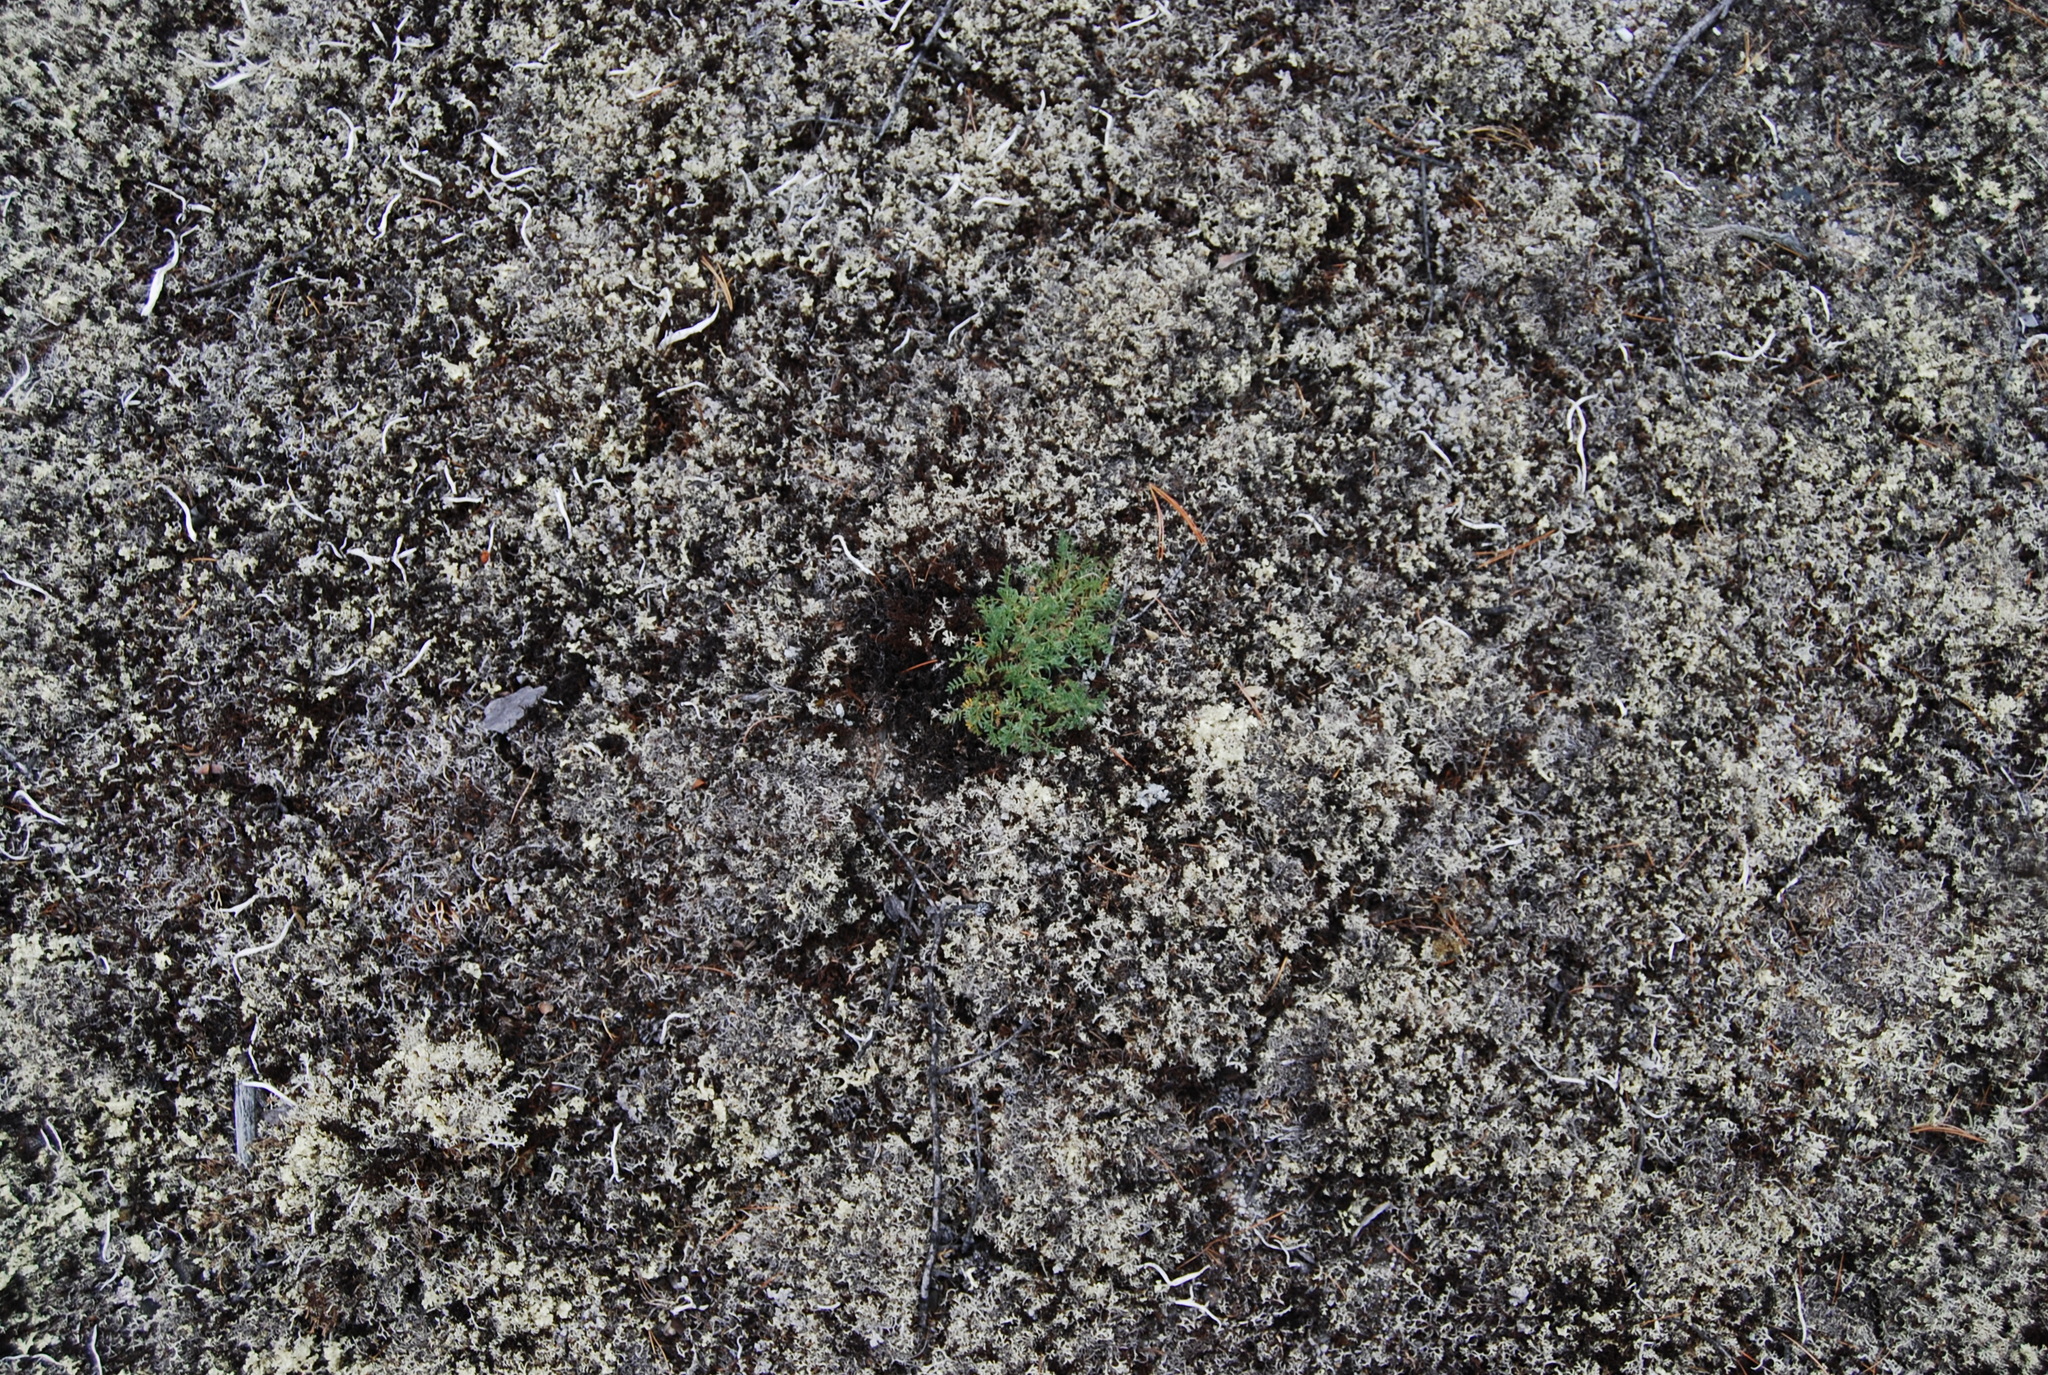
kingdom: Plantae
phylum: Tracheophyta
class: Magnoliopsida
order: Fabales
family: Fabaceae
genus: Oxytropis
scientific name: Oxytropis susumanica
